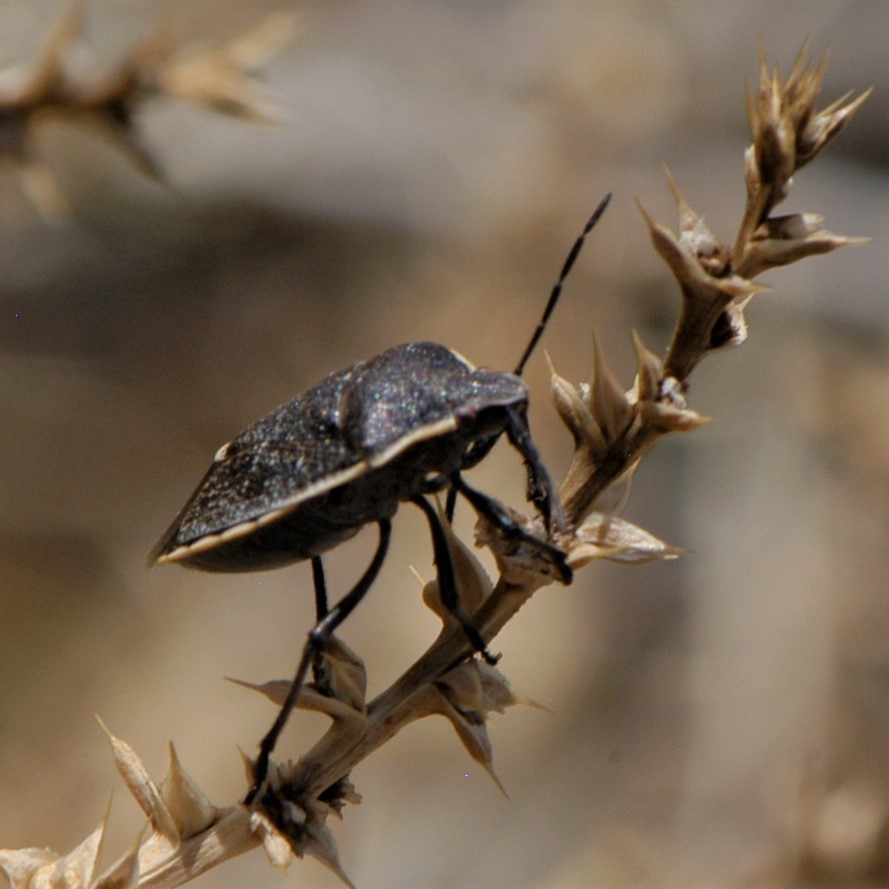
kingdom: Animalia
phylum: Arthropoda
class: Insecta
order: Hemiptera
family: Pentatomidae
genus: Chlorochroa
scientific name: Chlorochroa ligata
